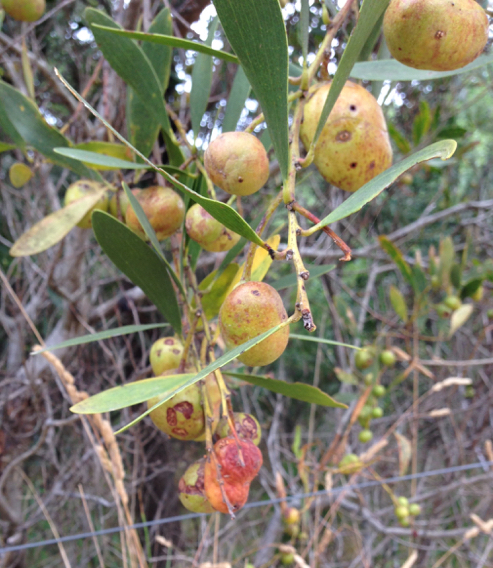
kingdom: Animalia
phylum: Arthropoda
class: Insecta
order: Hymenoptera
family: Pteromalidae
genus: Trichilogaster
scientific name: Trichilogaster acaciaelongifoliae
